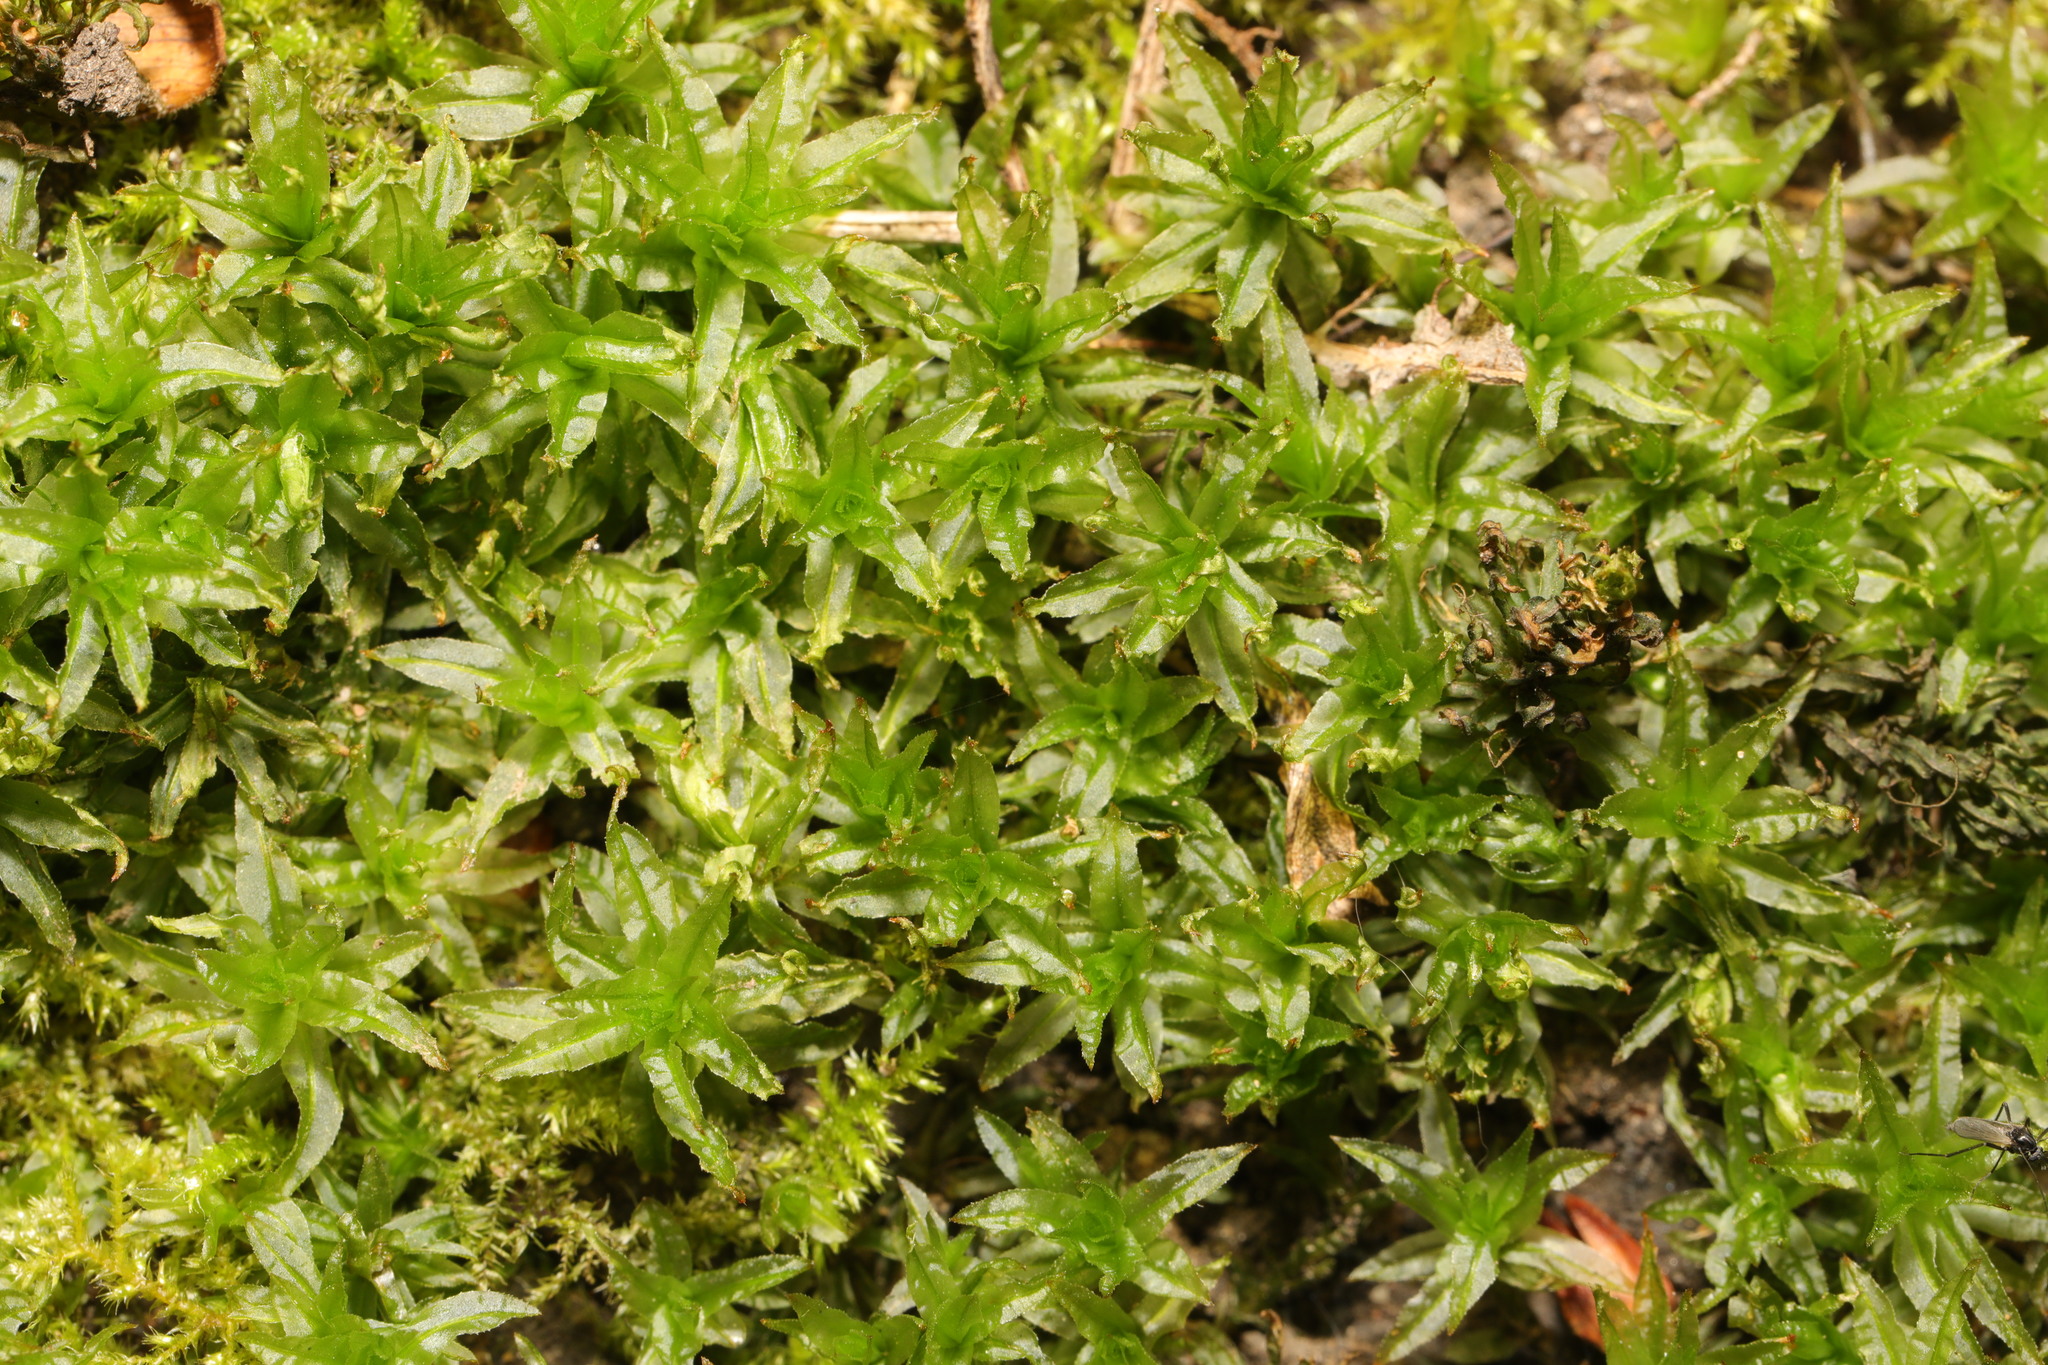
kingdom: Plantae
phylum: Bryophyta
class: Polytrichopsida
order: Polytrichales
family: Polytrichaceae
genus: Atrichum
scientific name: Atrichum undulatum
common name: Common smoothcap
